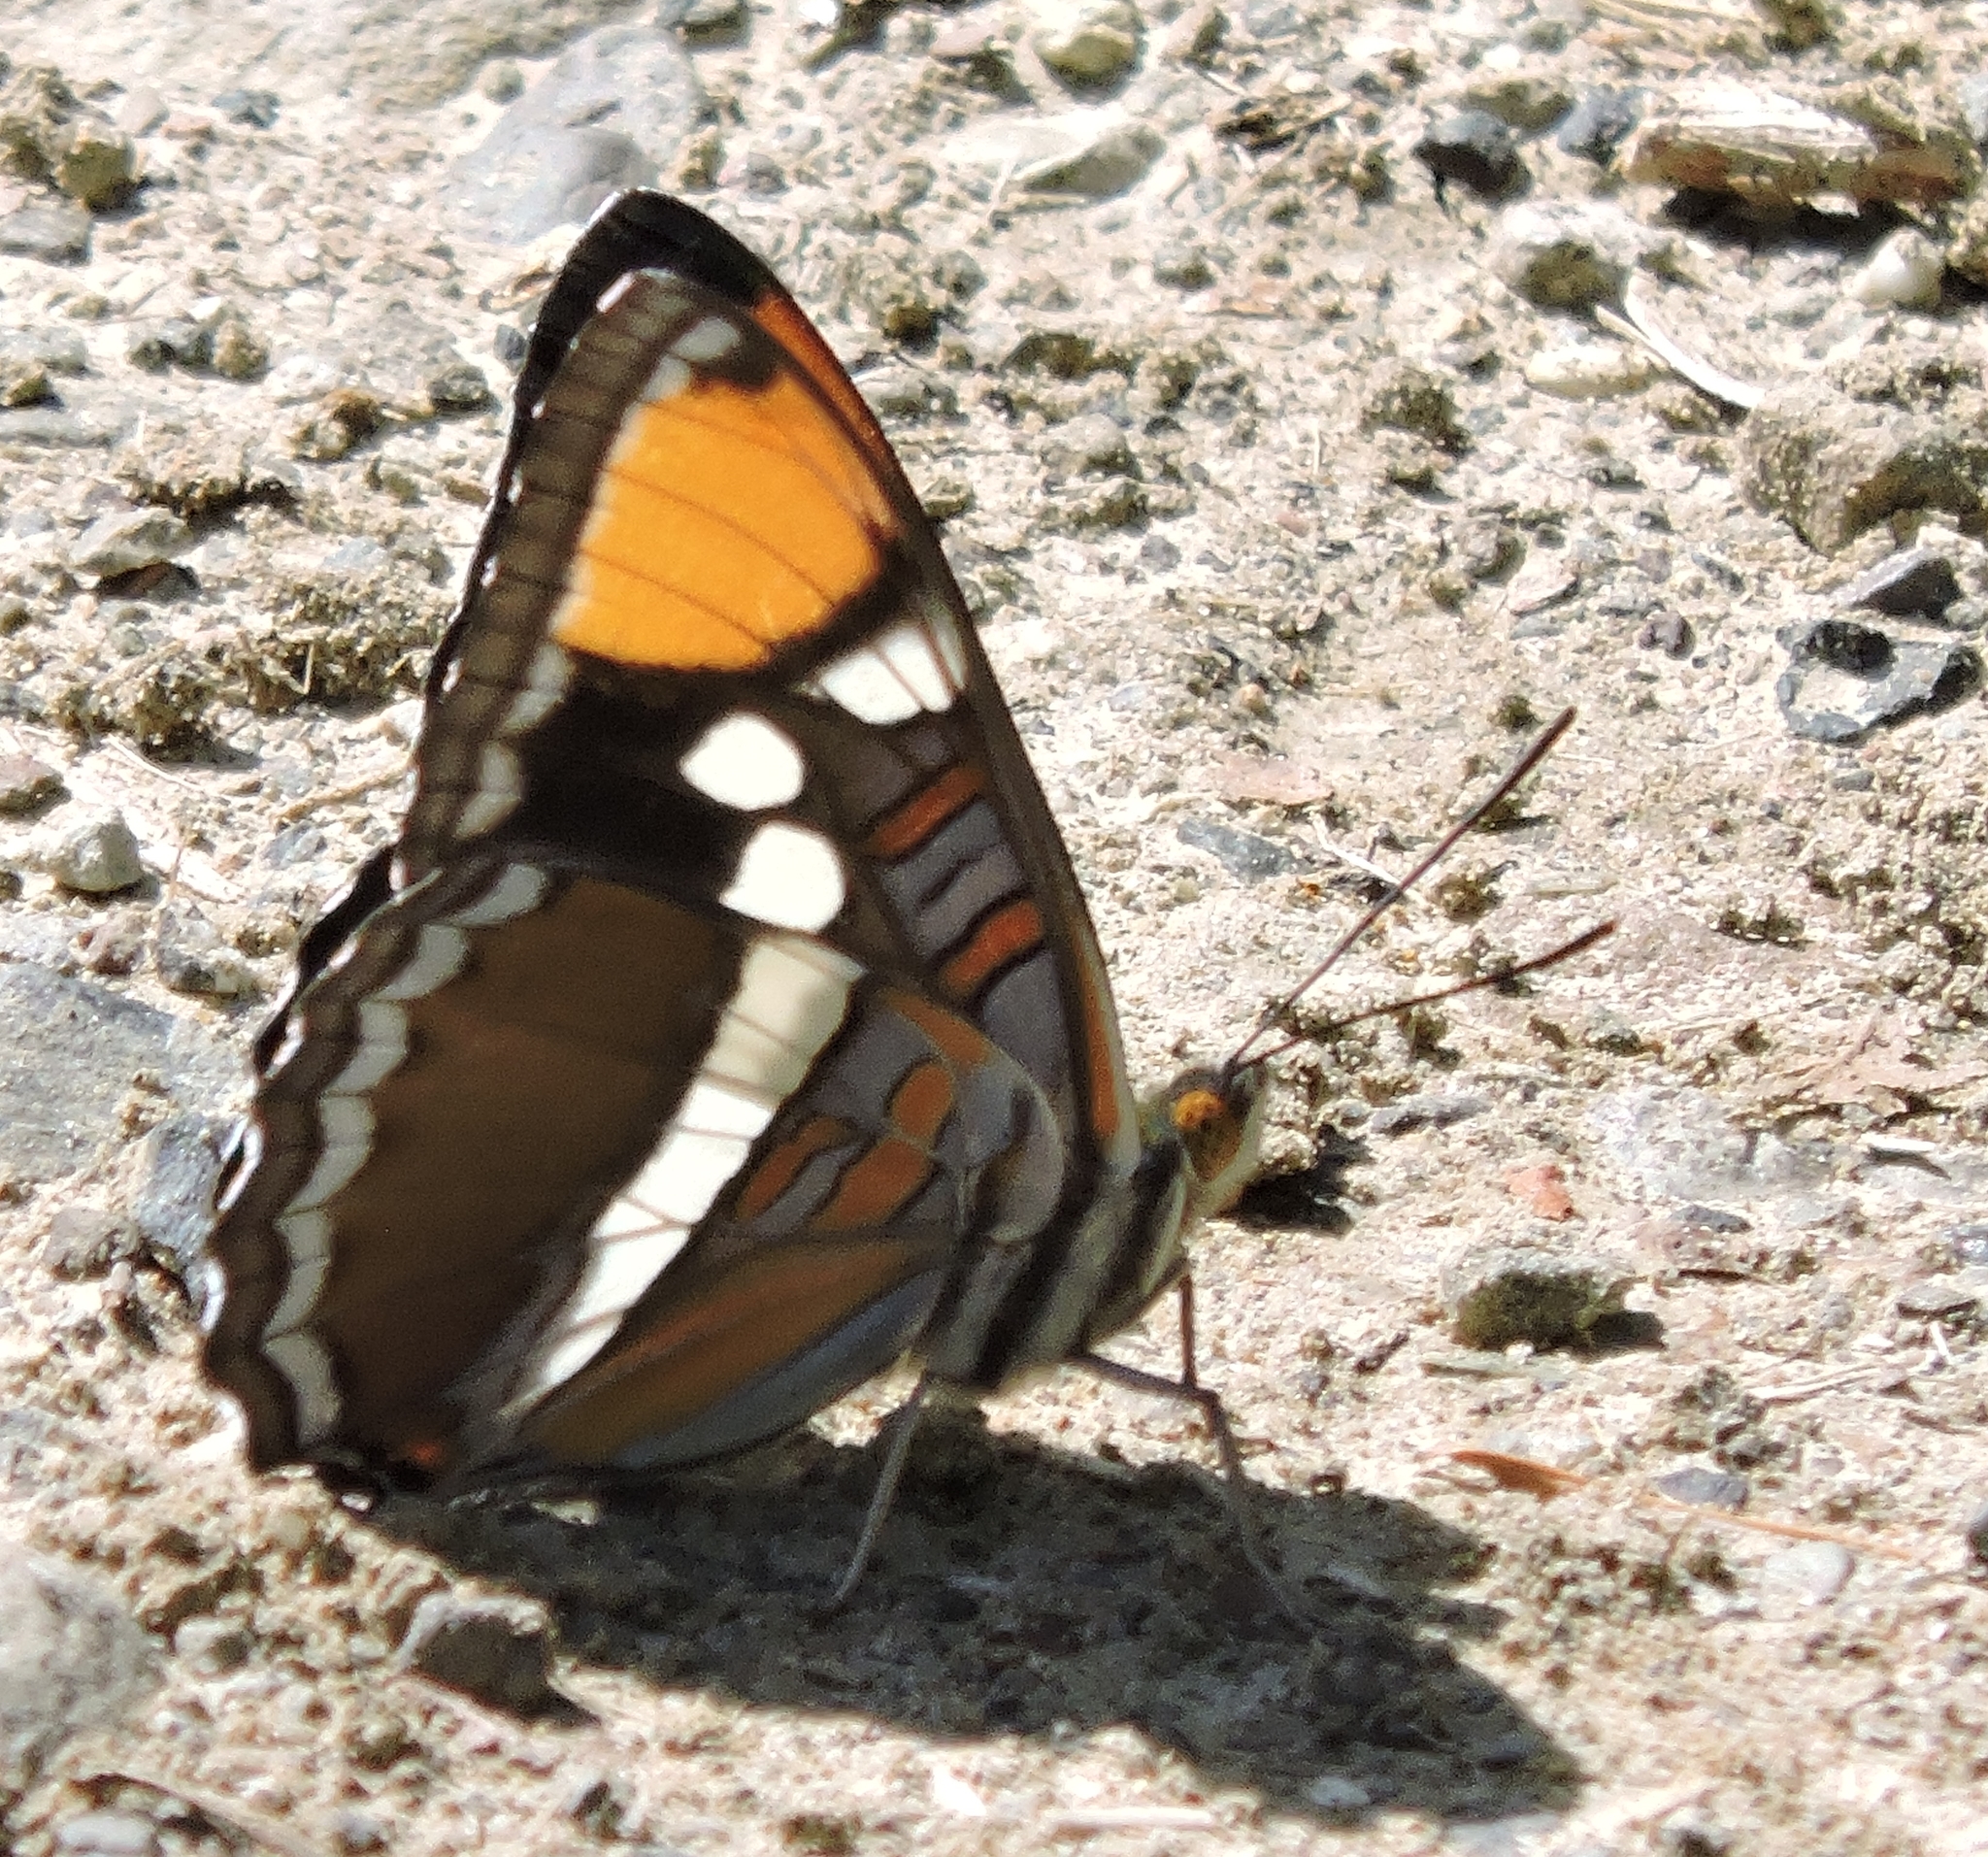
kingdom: Animalia
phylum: Arthropoda
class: Insecta
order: Lepidoptera
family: Nymphalidae
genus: Limenitis
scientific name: Limenitis bredowii
